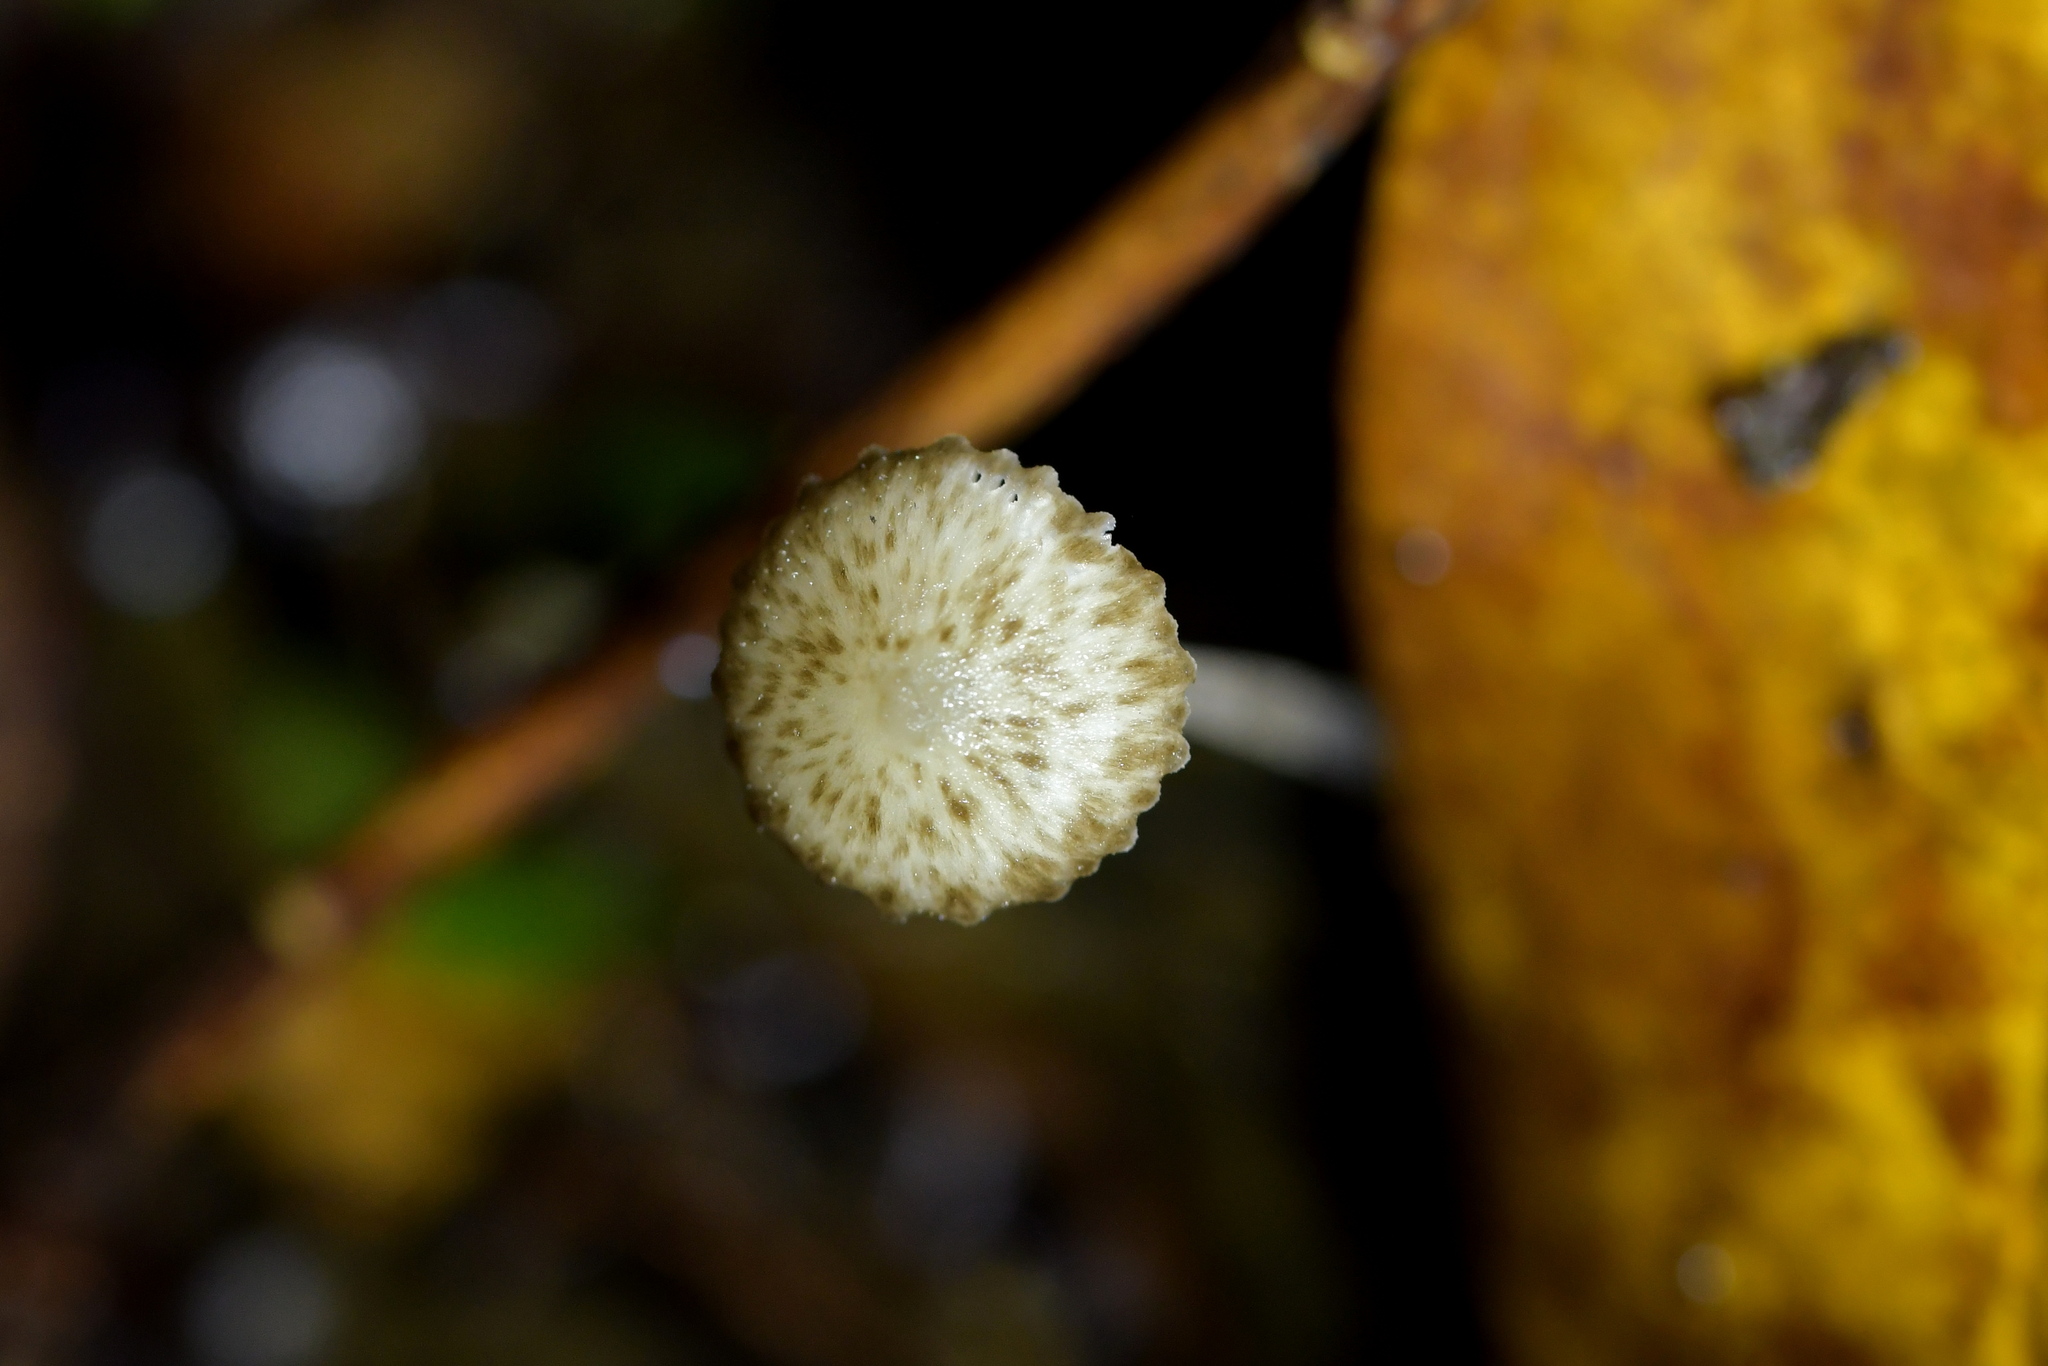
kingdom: Fungi
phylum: Basidiomycota
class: Agaricomycetes
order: Agaricales
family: Porotheleaceae
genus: Pseudohydropus
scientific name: Pseudohydropus parafunebris
